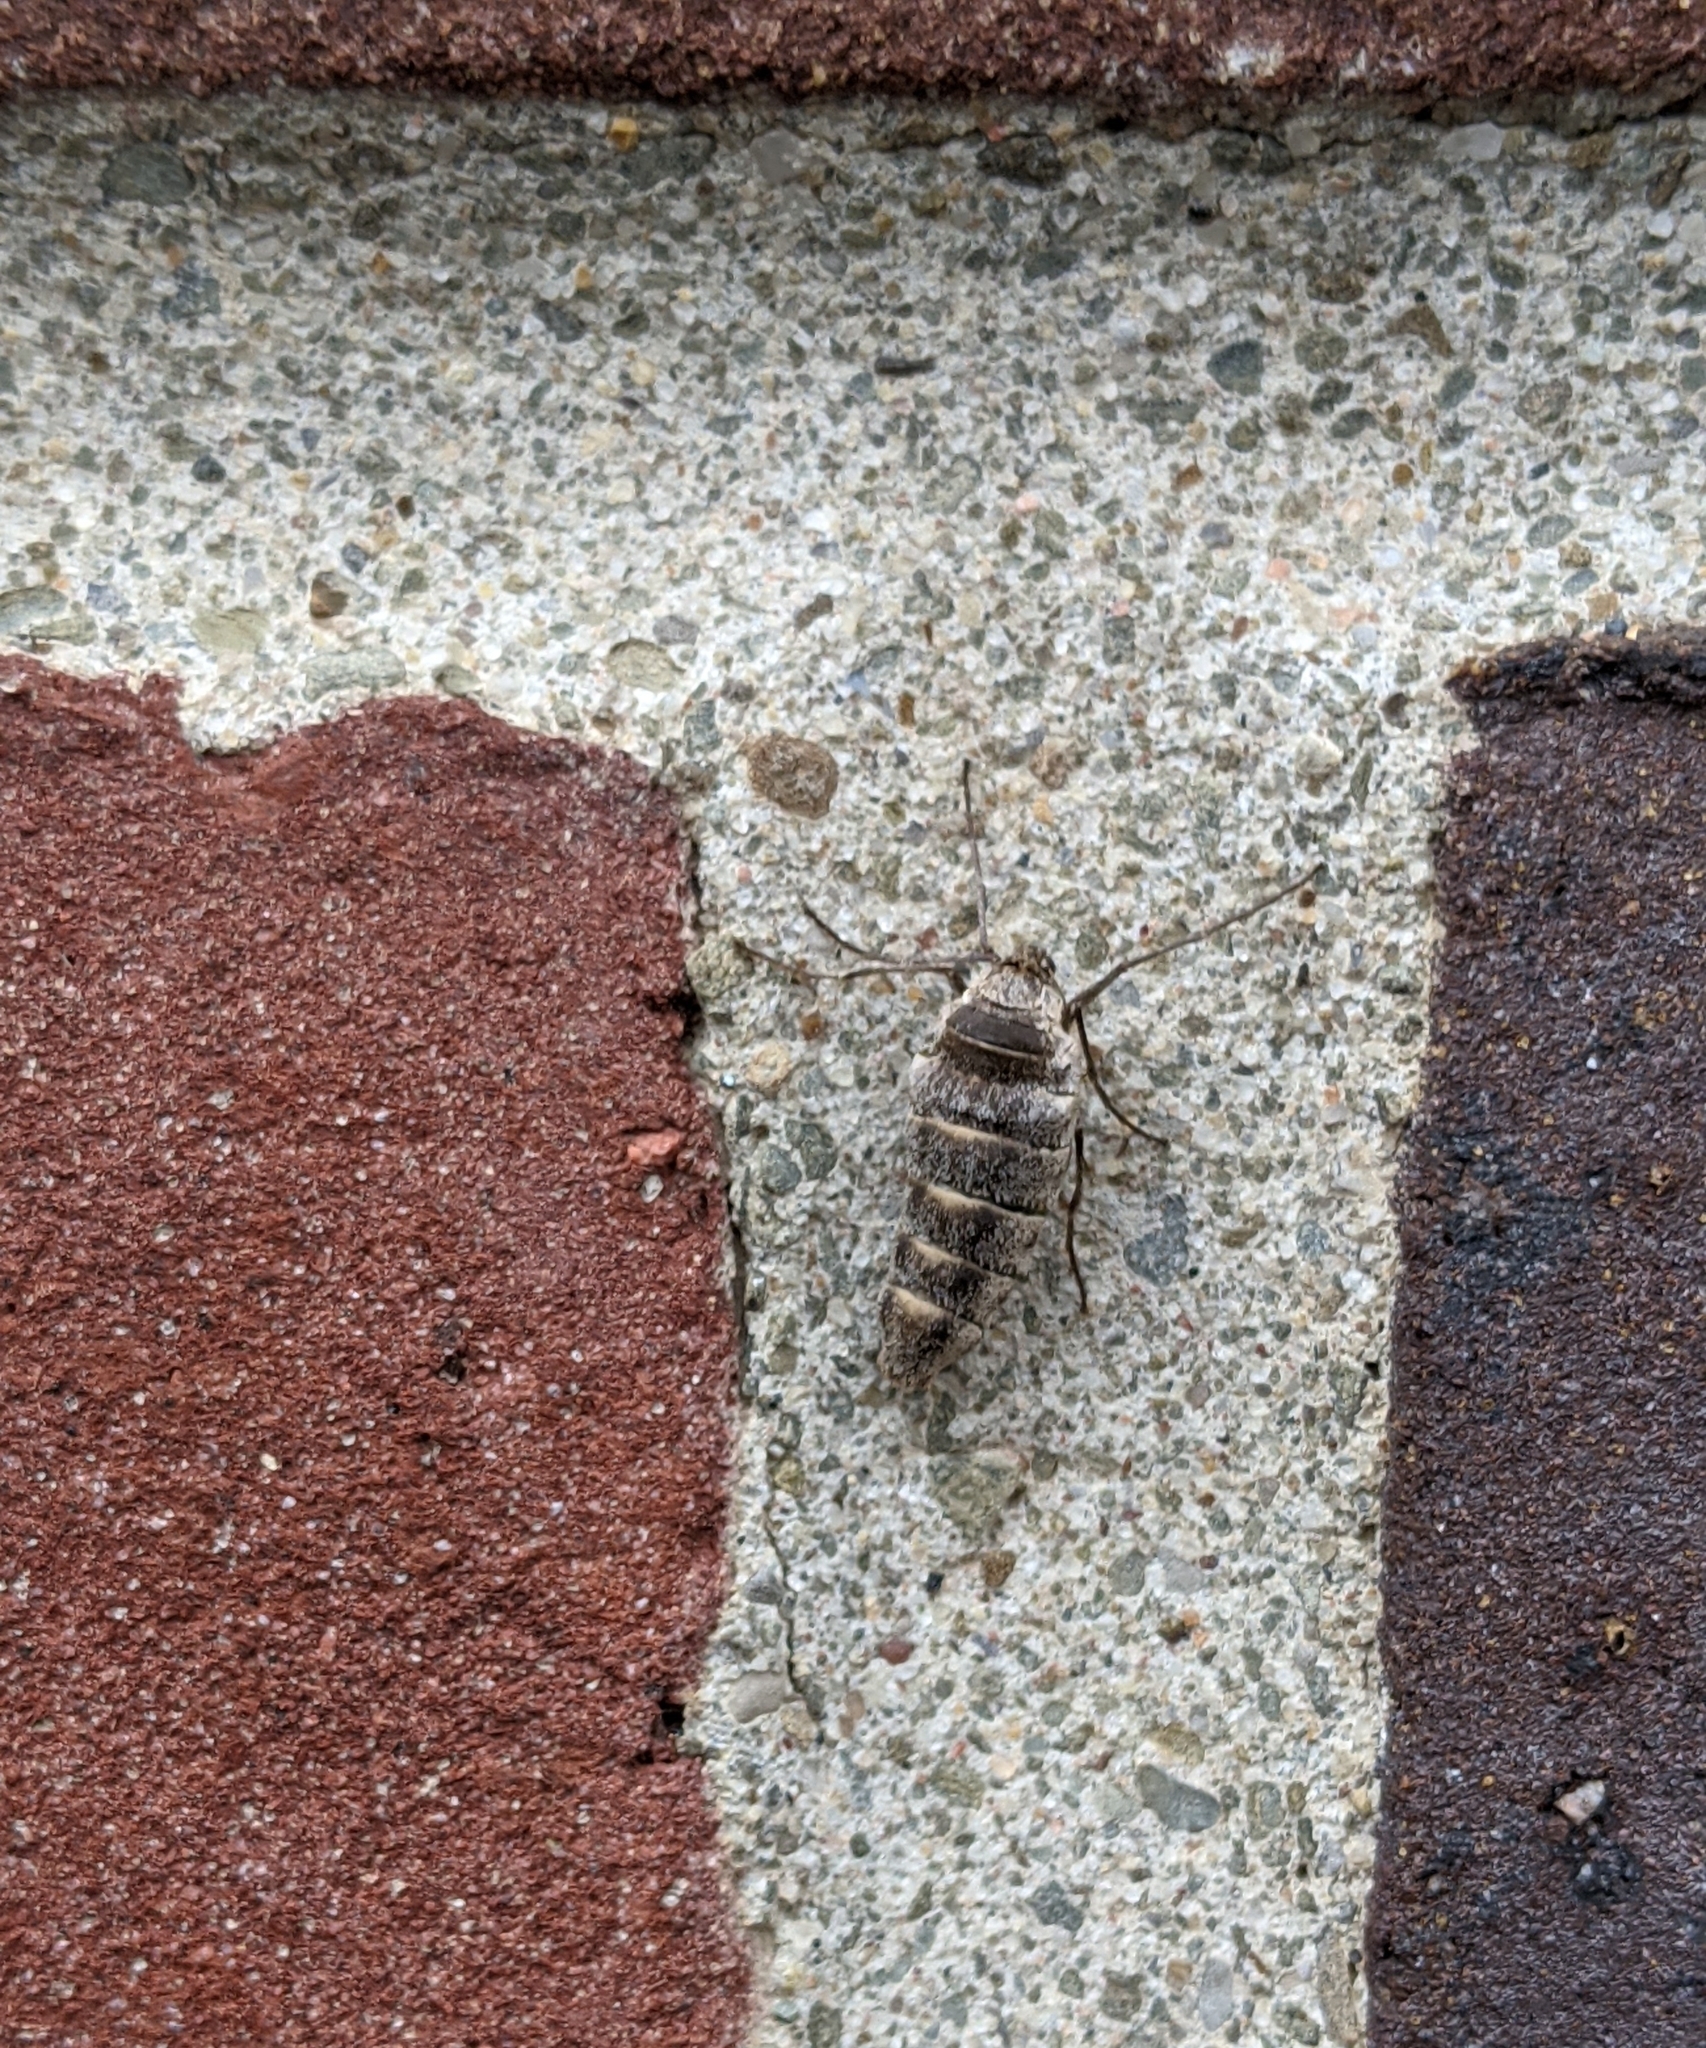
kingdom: Animalia
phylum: Arthropoda
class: Insecta
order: Lepidoptera
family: Geometridae
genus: Alsophila
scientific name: Alsophila pometaria
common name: Fall cankerworm
